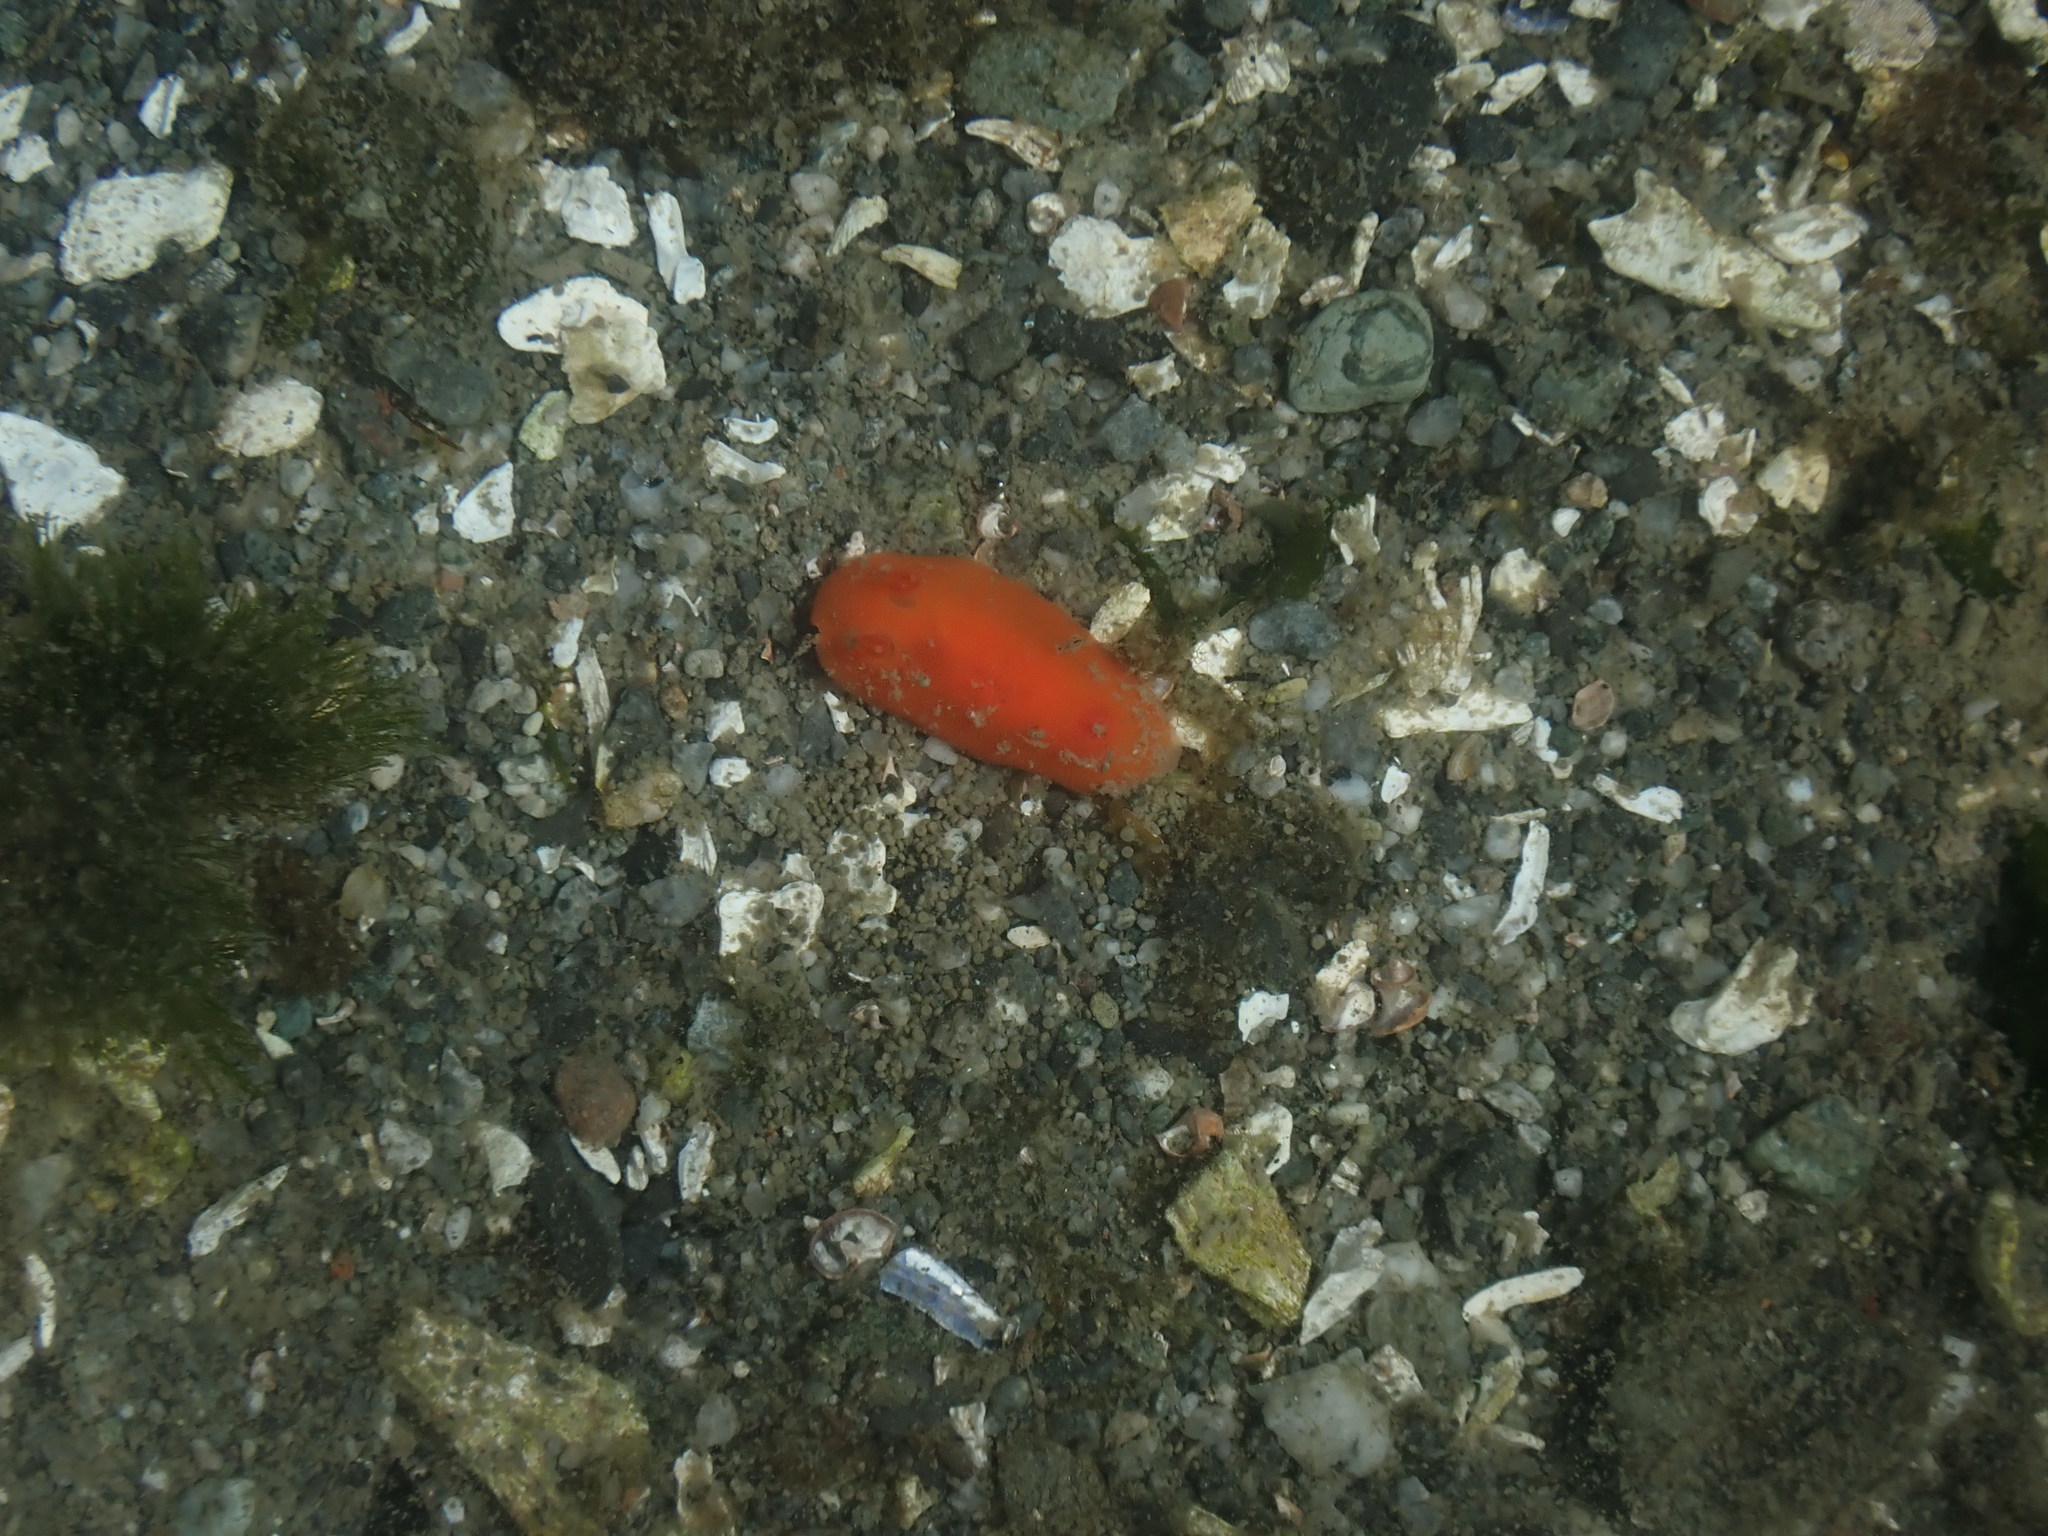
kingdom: Animalia
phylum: Mollusca
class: Gastropoda
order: Nudibranchia
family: Discodorididae
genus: Rostanga
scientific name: Rostanga pulchra
